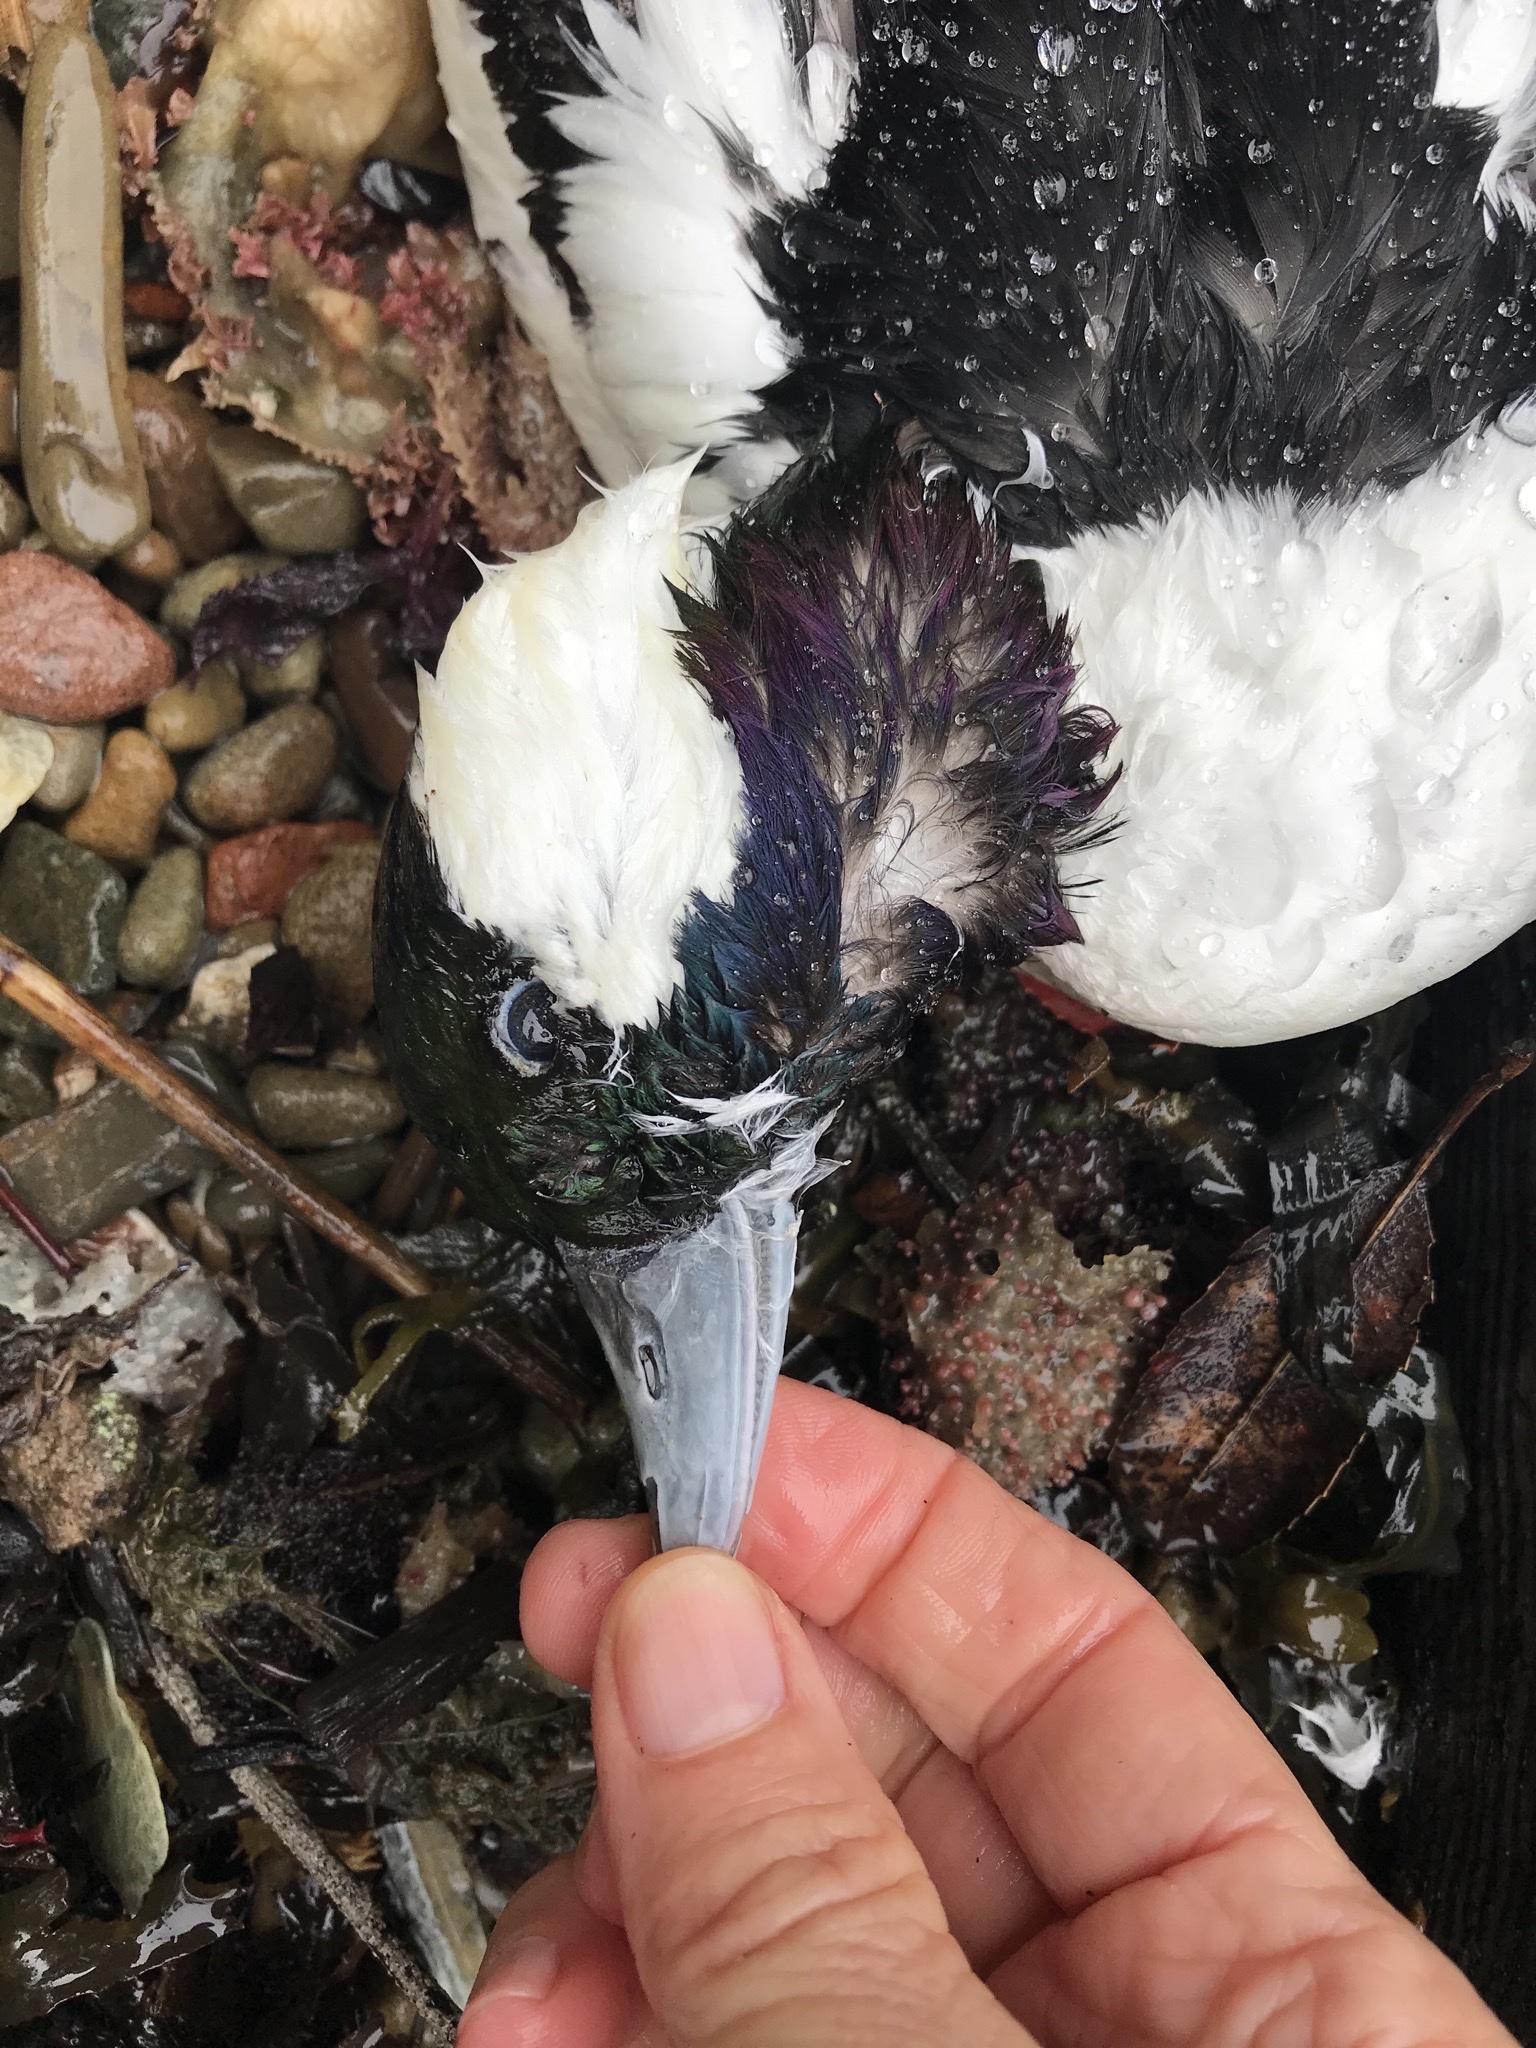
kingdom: Animalia
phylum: Chordata
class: Aves
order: Anseriformes
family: Anatidae
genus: Bucephala
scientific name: Bucephala albeola
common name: Bufflehead
